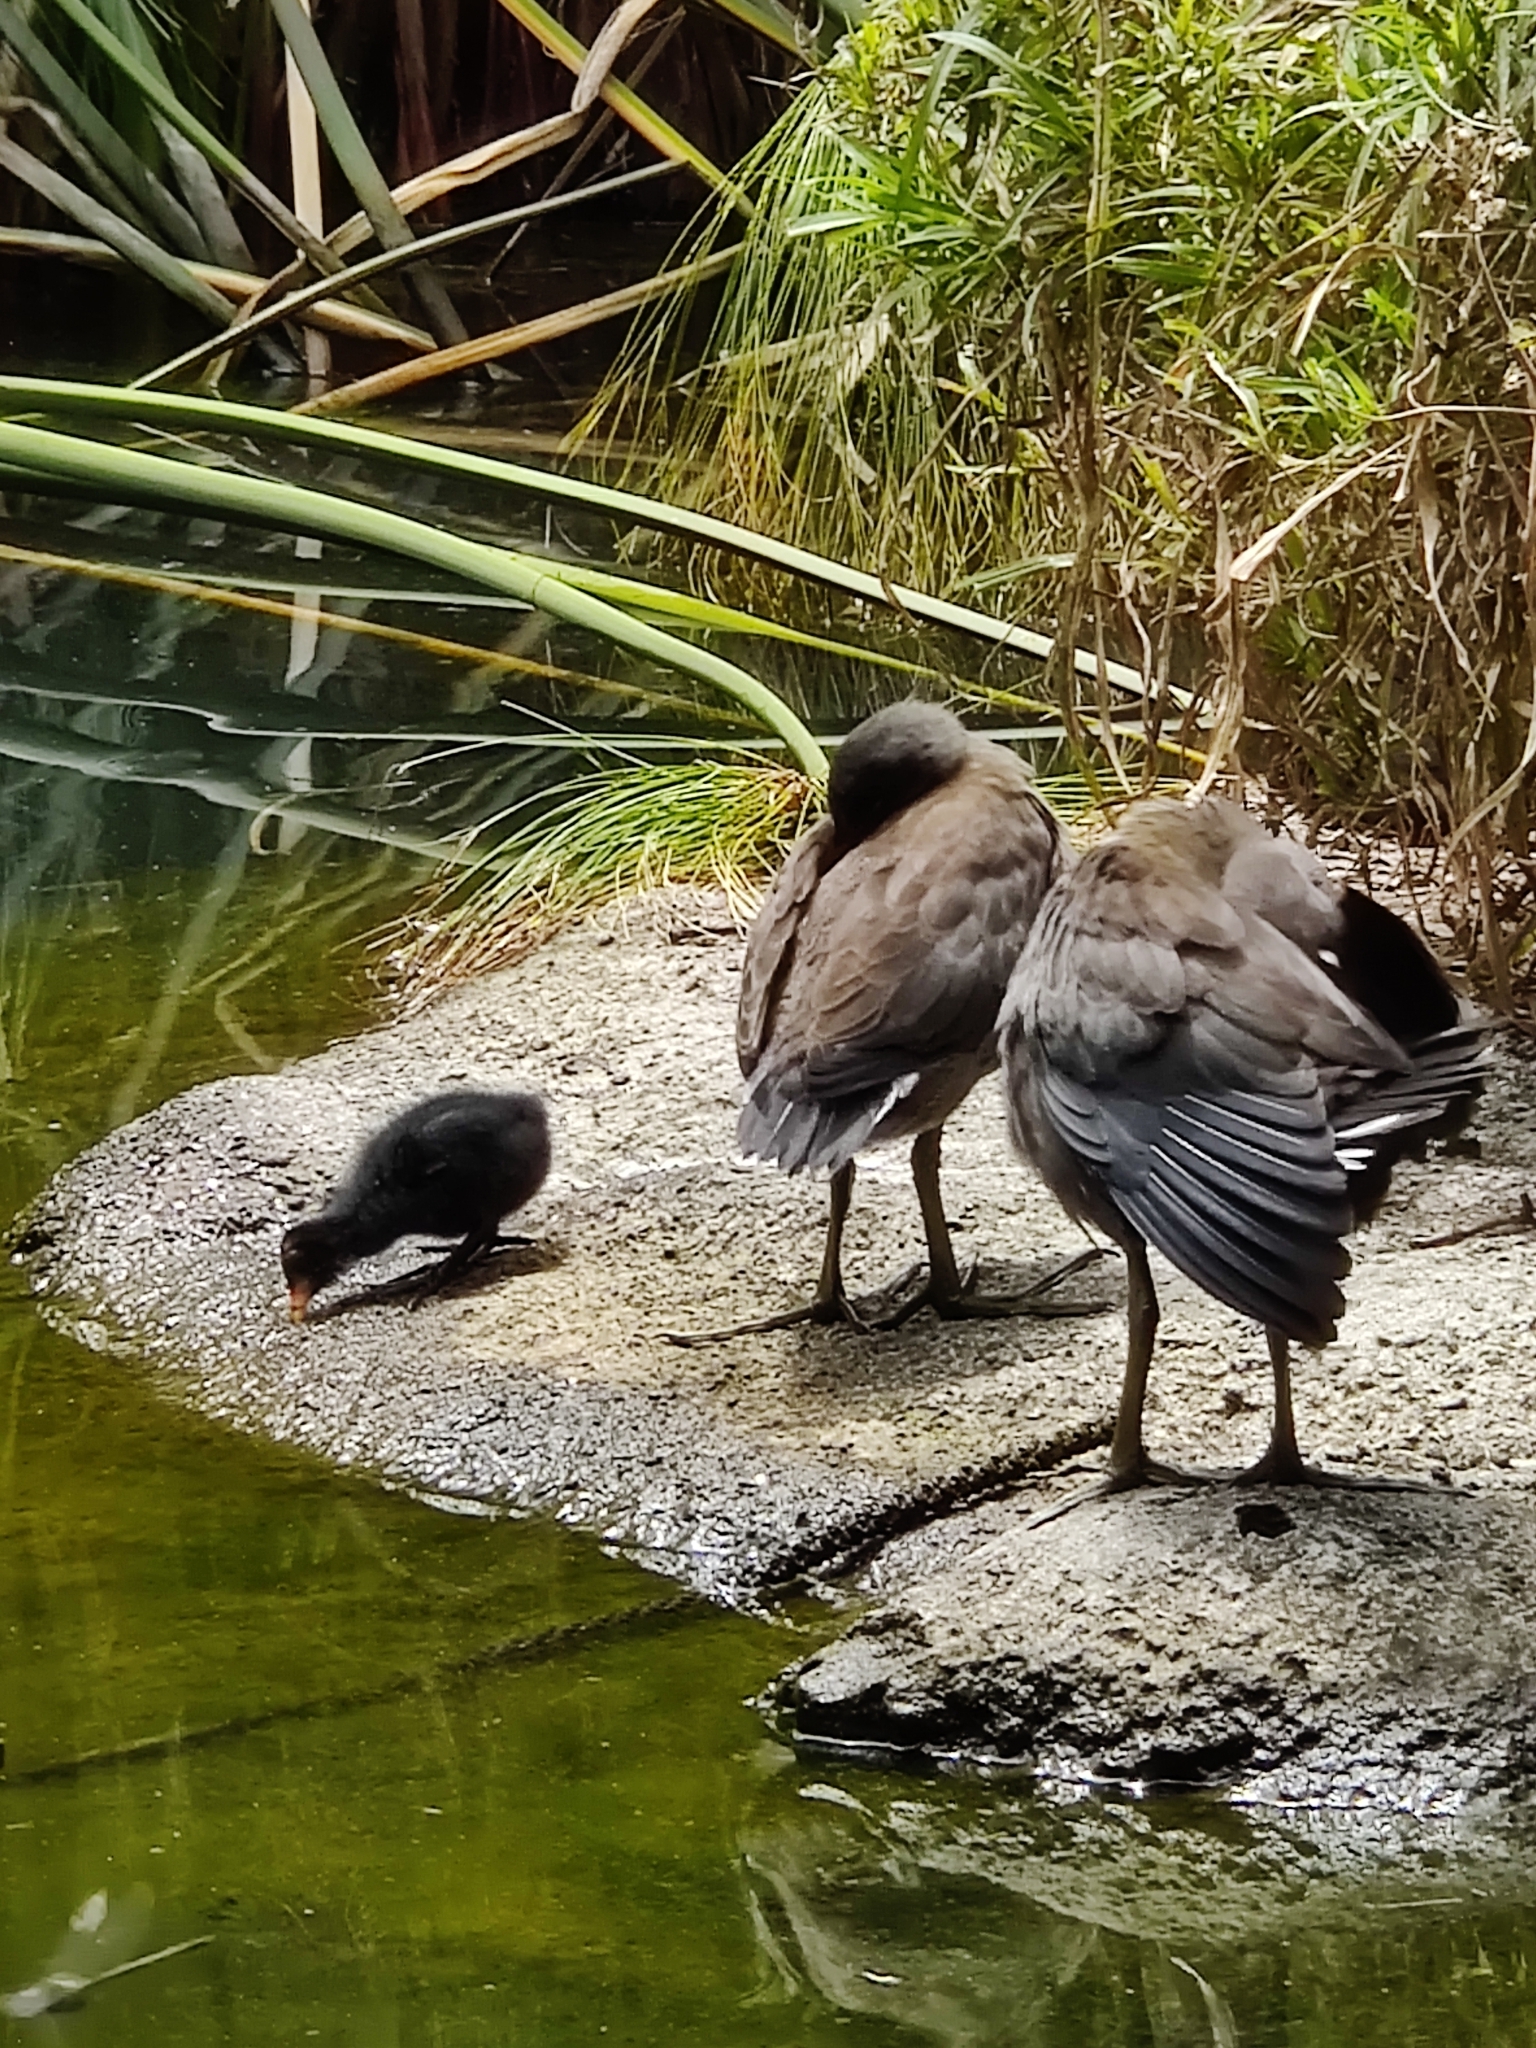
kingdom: Animalia
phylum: Chordata
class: Aves
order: Gruiformes
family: Rallidae
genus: Gallinula
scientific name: Gallinula tenebrosa
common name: Dusky moorhen
